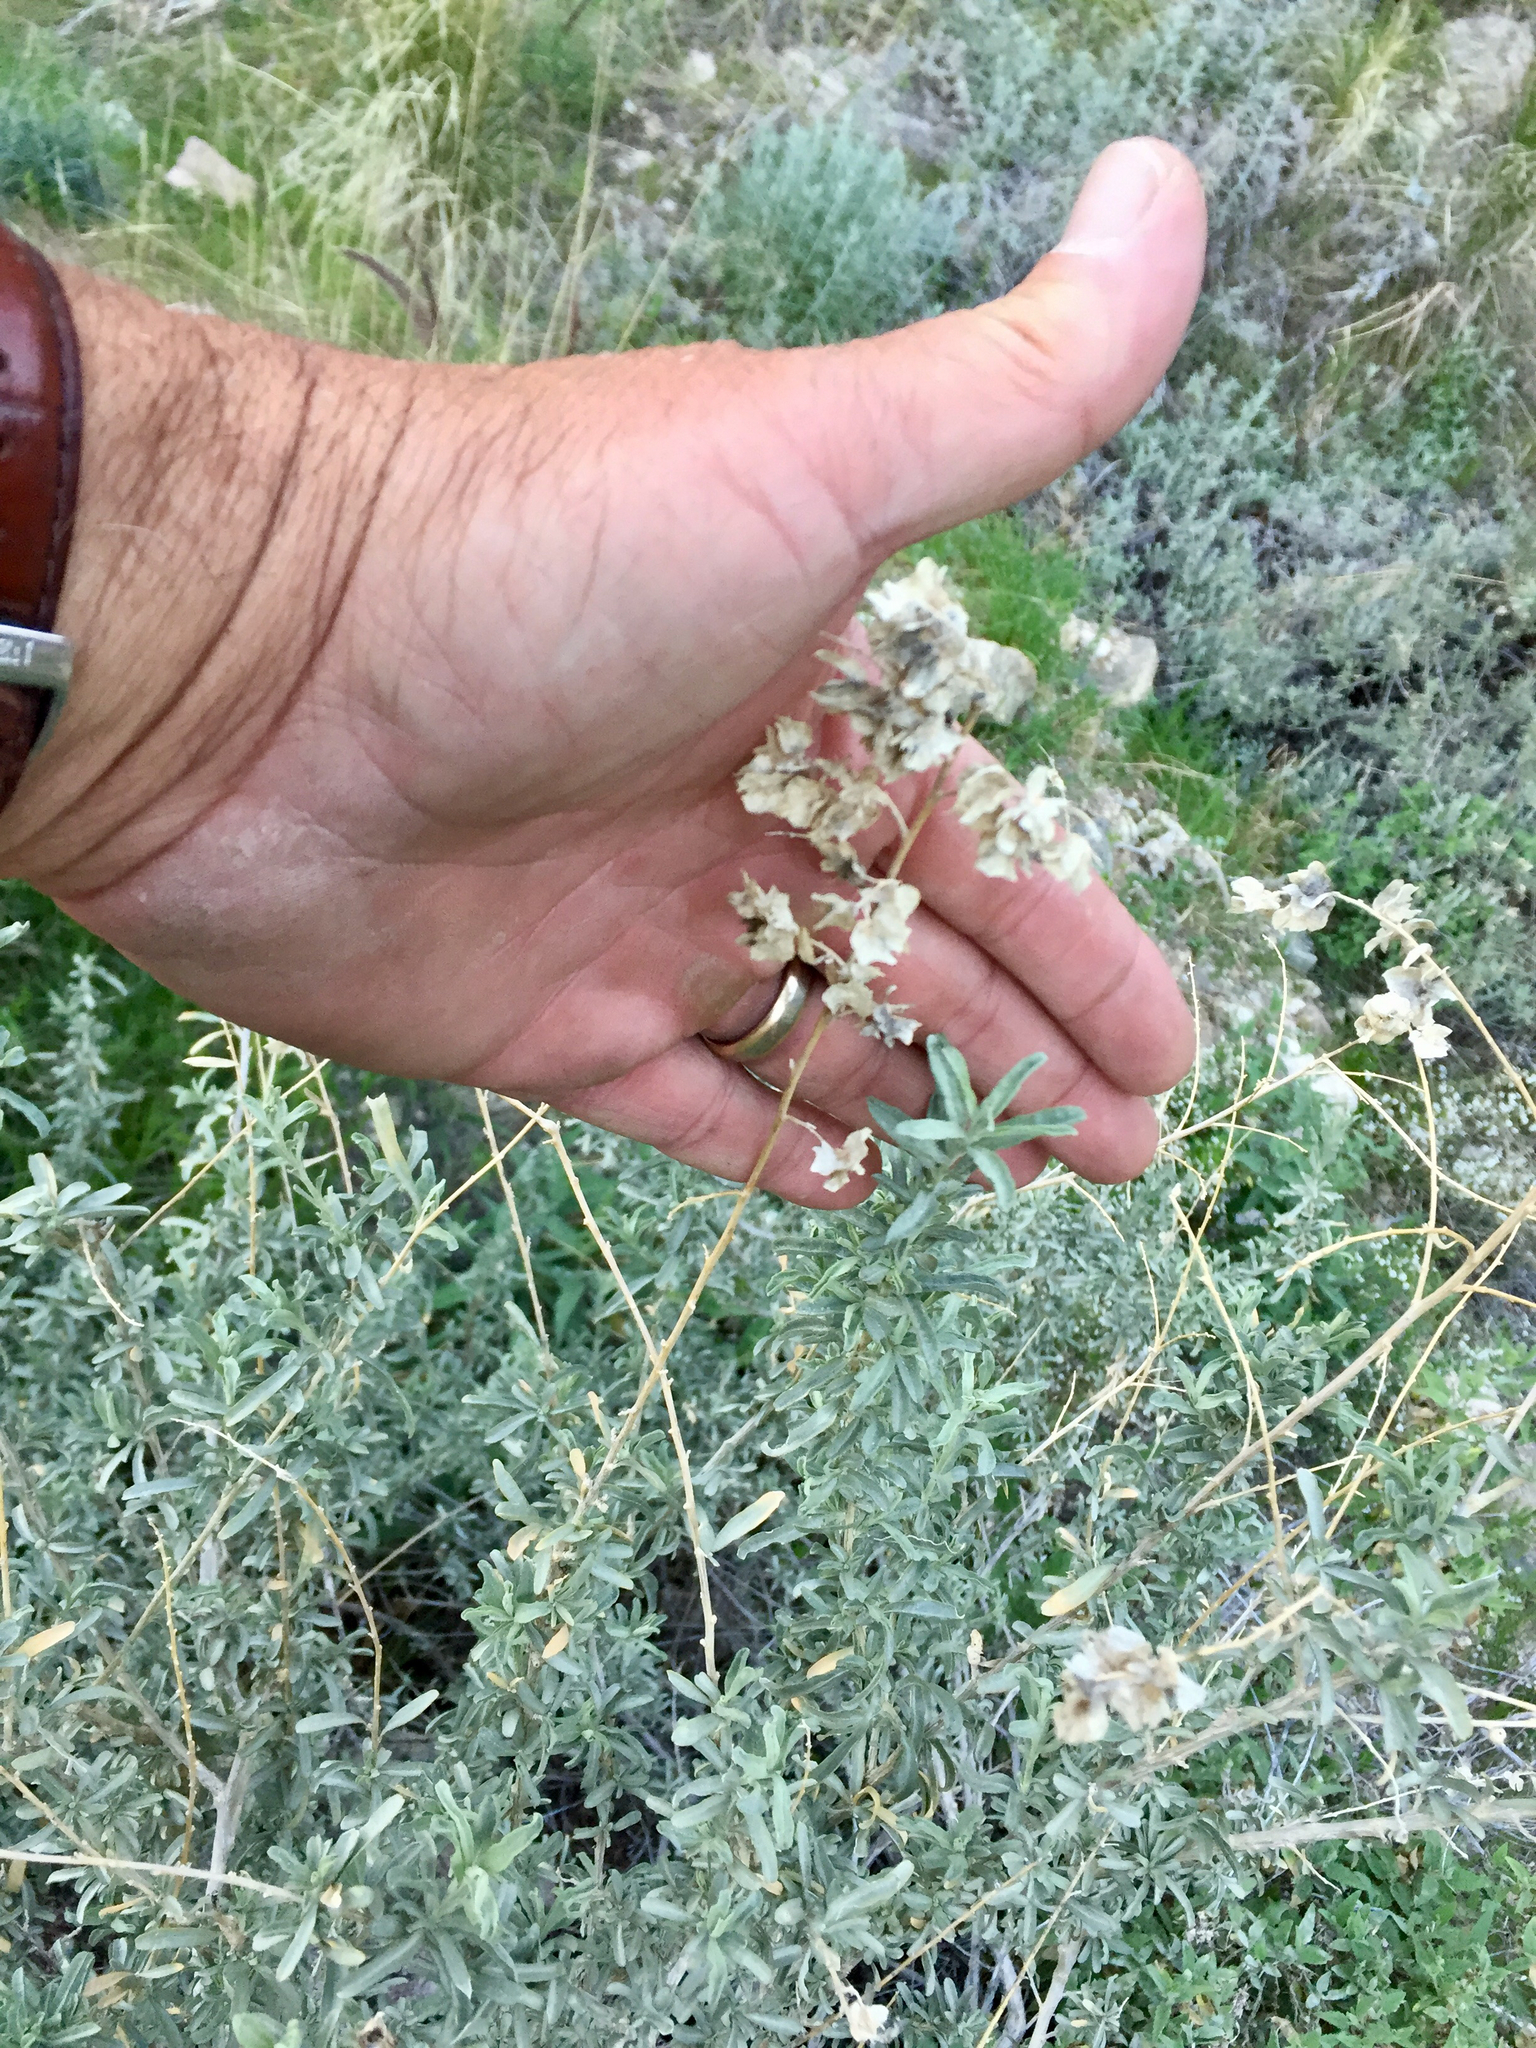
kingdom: Plantae
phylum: Tracheophyta
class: Magnoliopsida
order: Caryophyllales
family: Amaranthaceae
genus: Atriplex
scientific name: Atriplex canescens
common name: Four-wing saltbush
